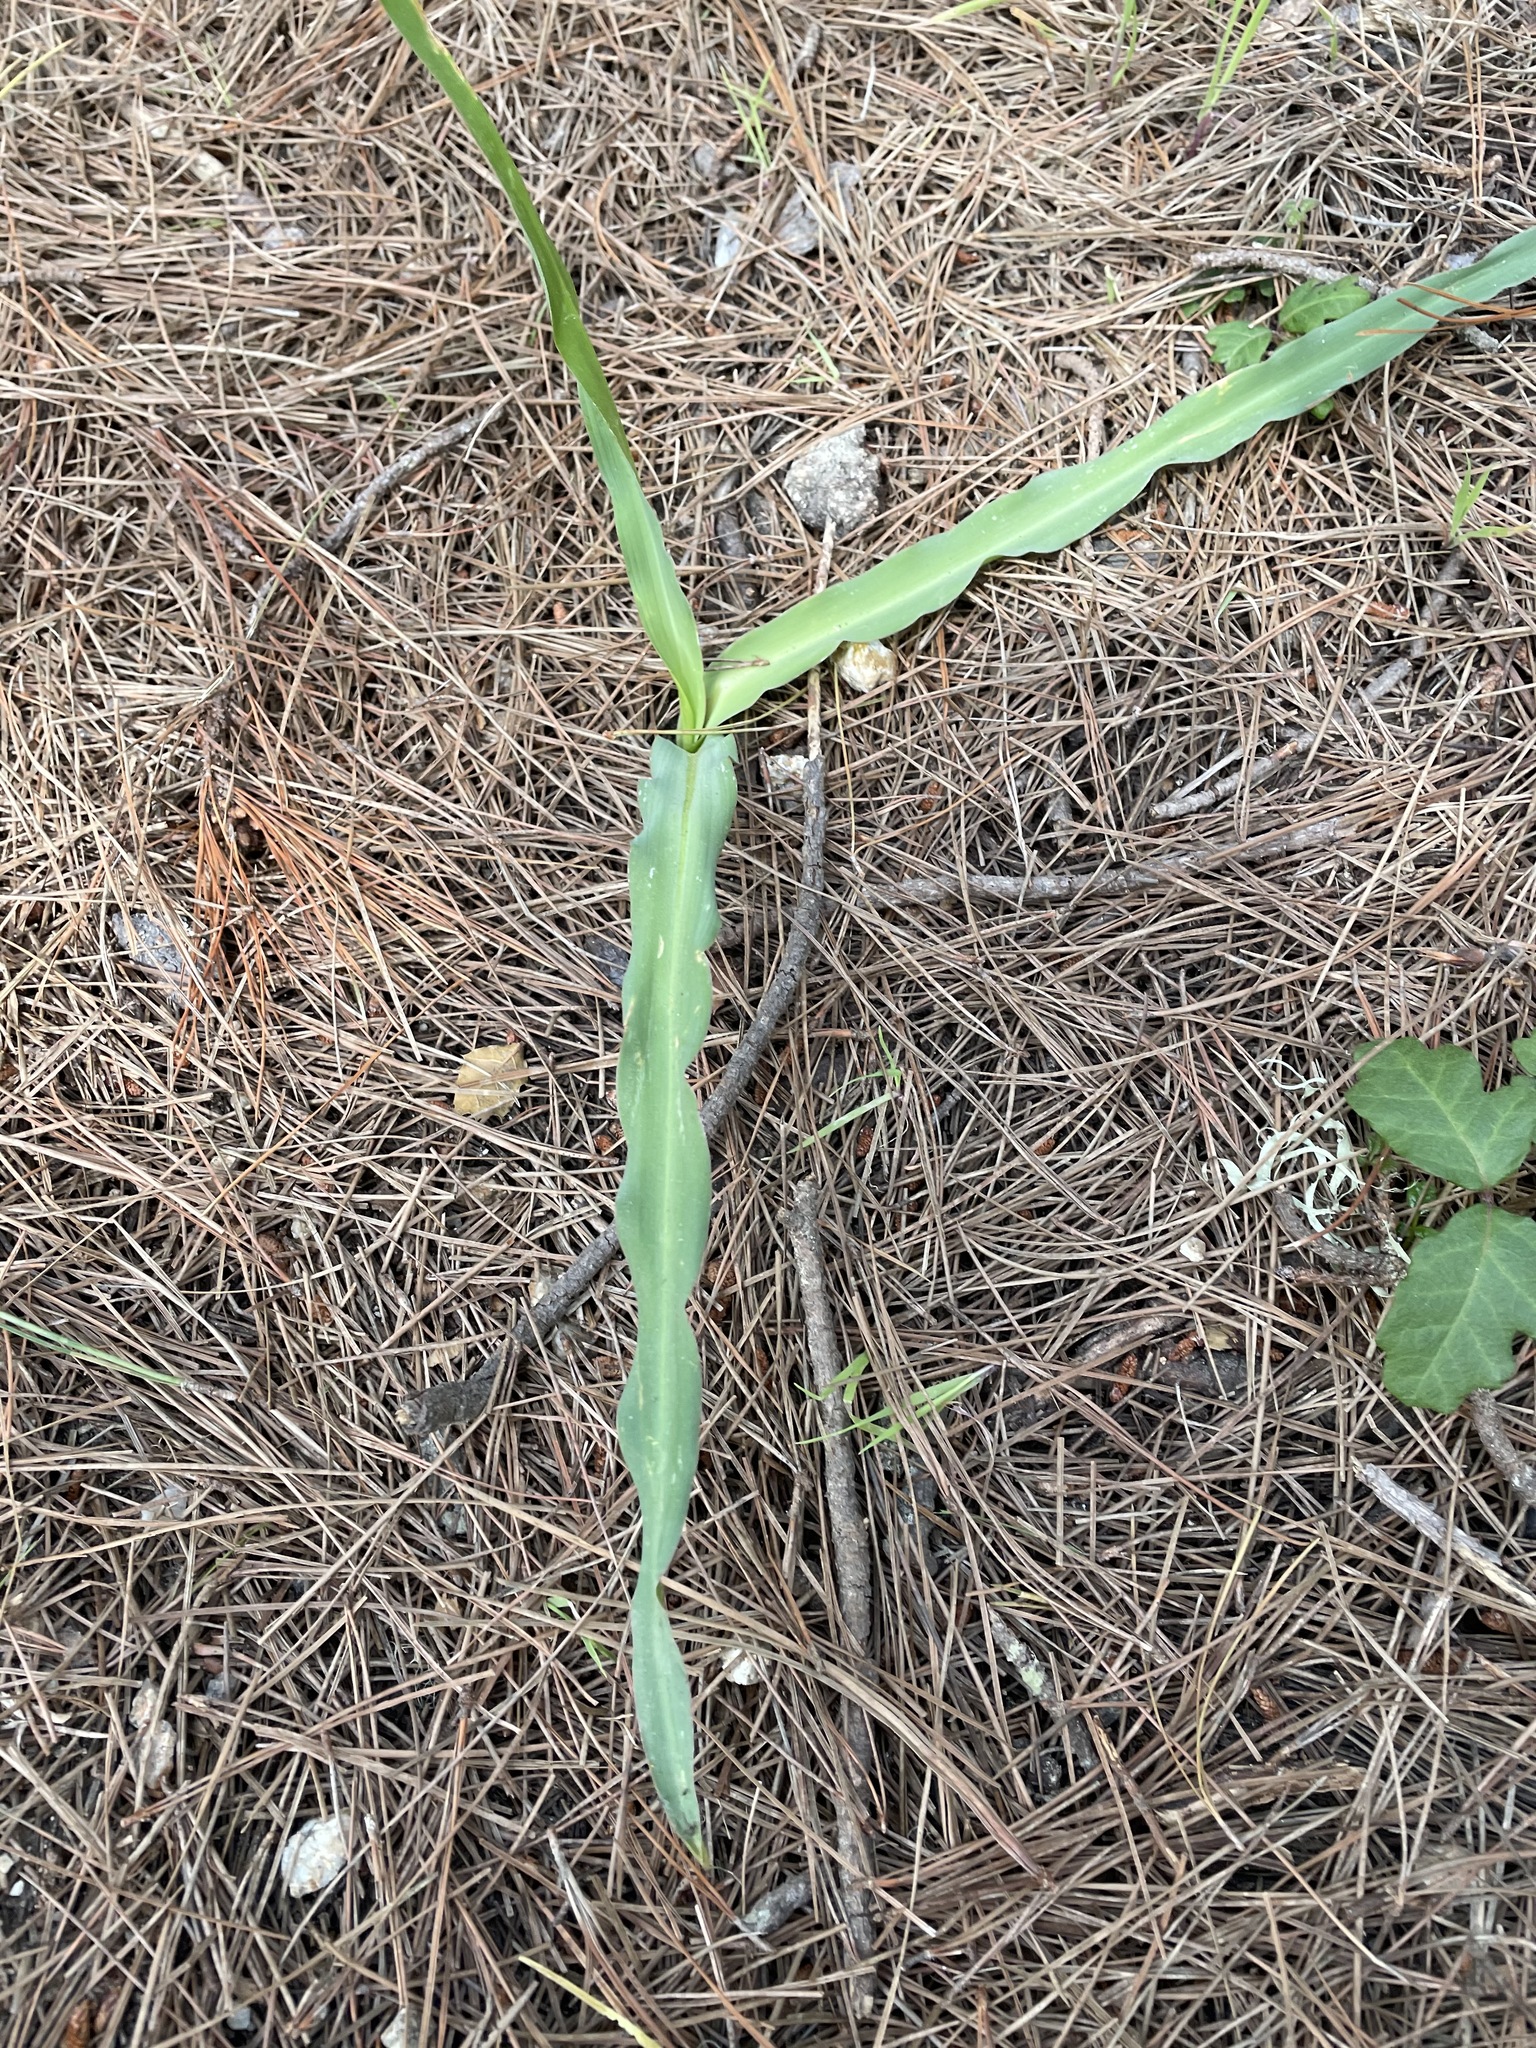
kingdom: Plantae
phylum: Tracheophyta
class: Liliopsida
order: Asparagales
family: Asparagaceae
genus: Chlorogalum
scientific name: Chlorogalum pomeridianum
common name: Amole
